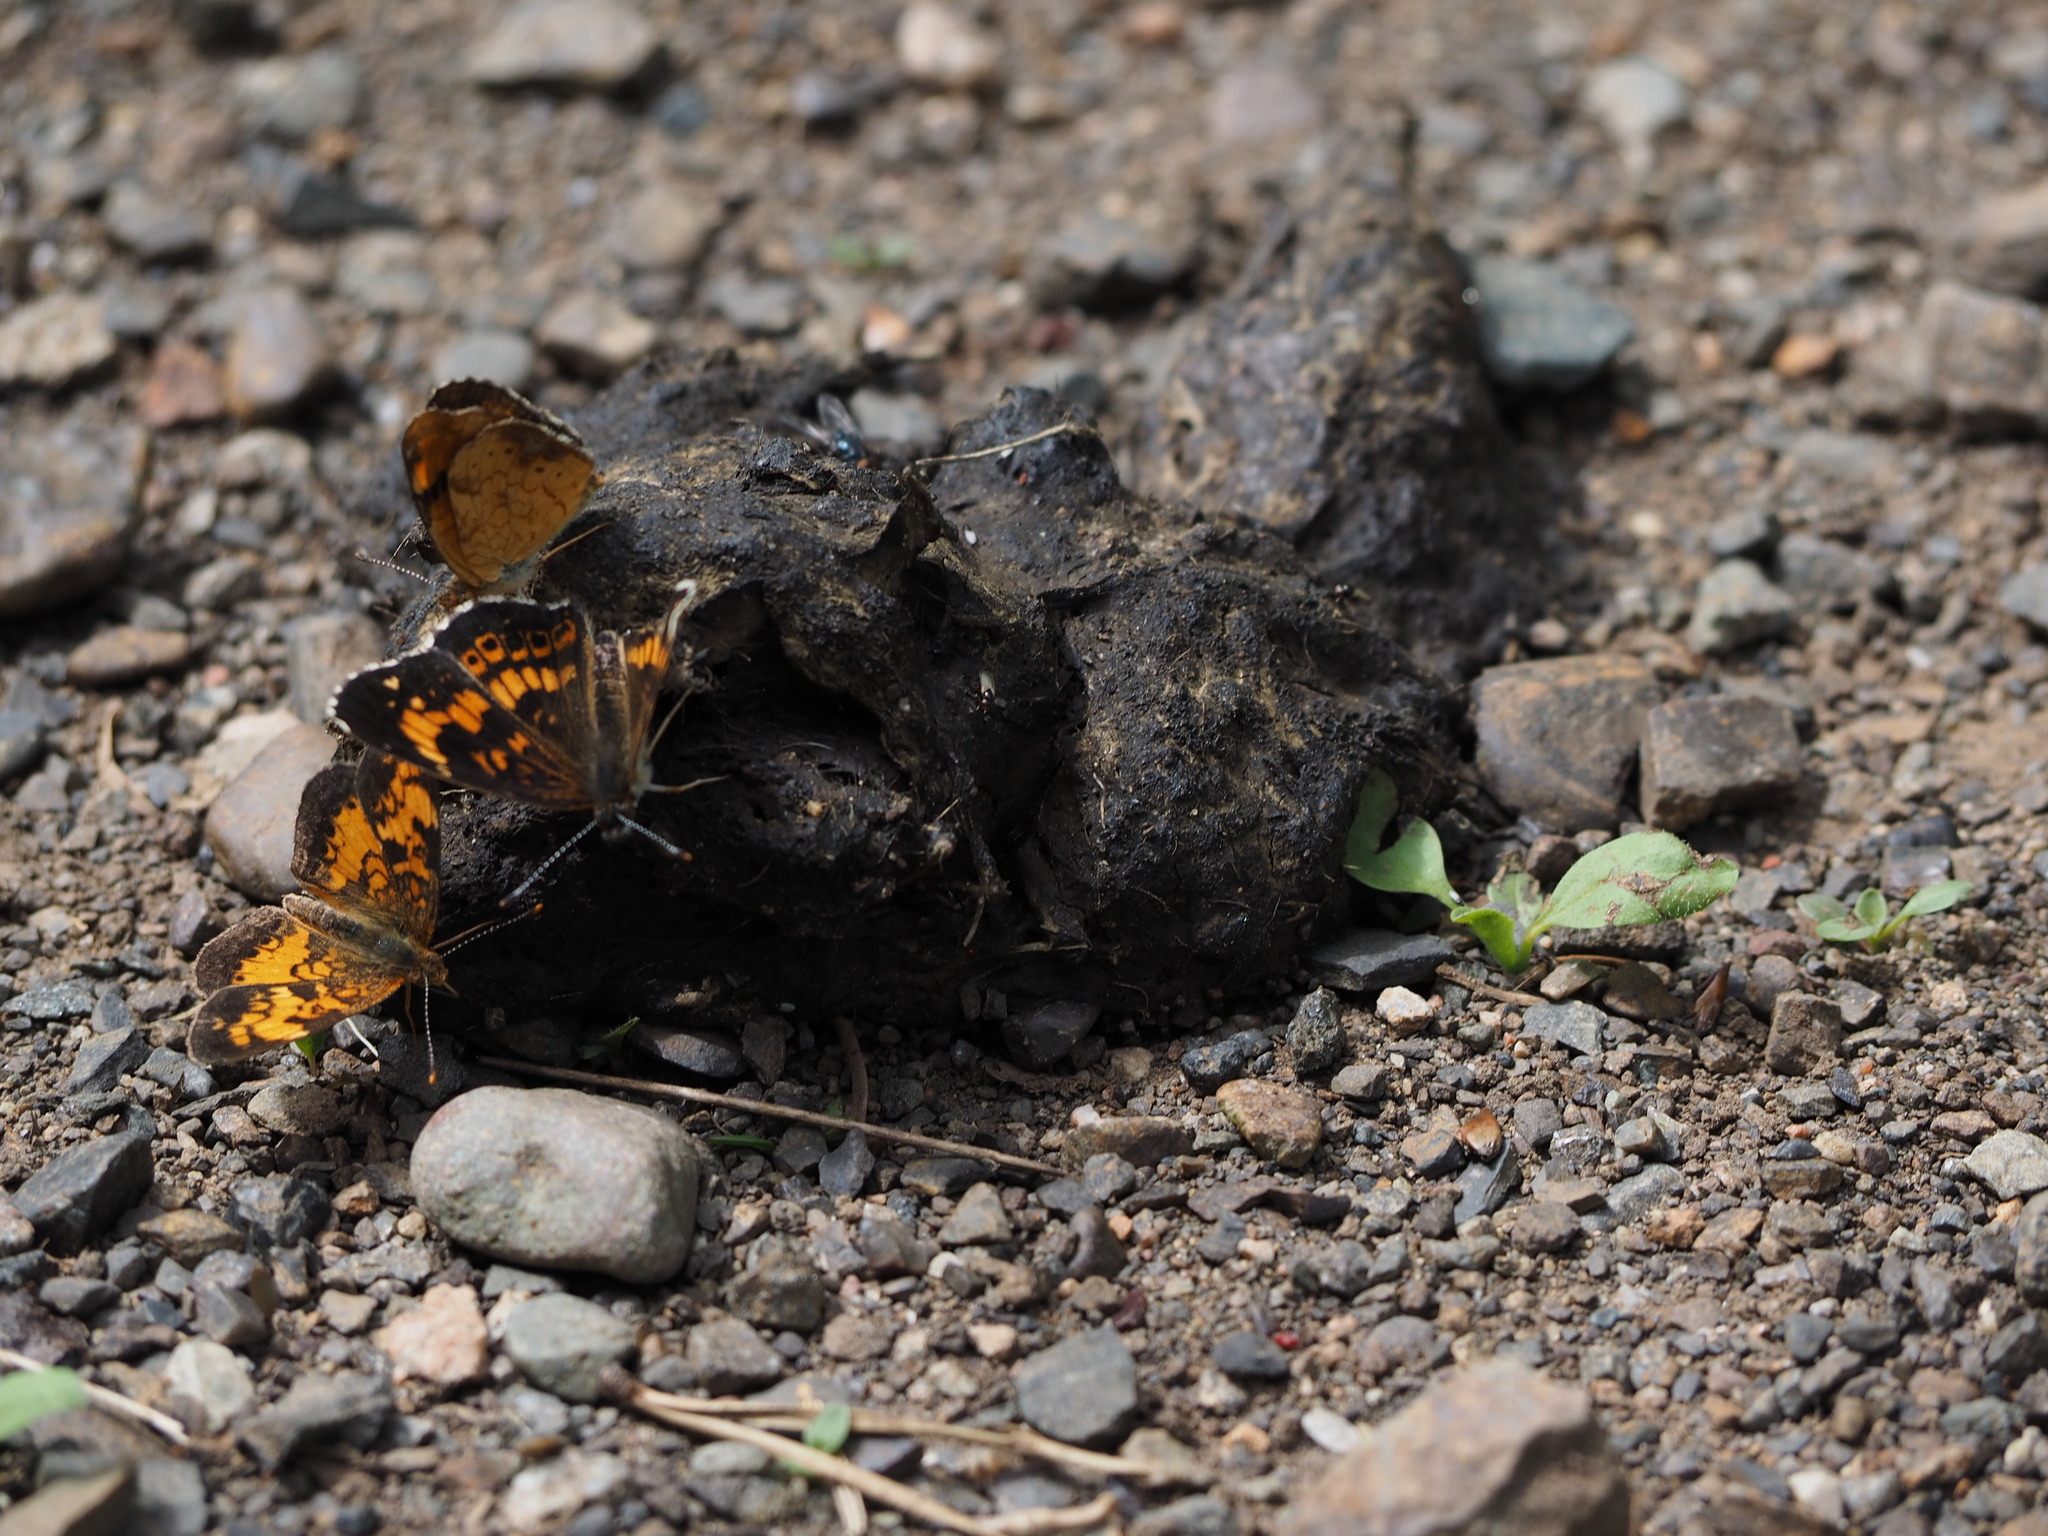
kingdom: Animalia
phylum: Arthropoda
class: Insecta
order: Lepidoptera
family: Nymphalidae
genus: Phyciodes
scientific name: Phyciodes tharos
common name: Pearl crescent
